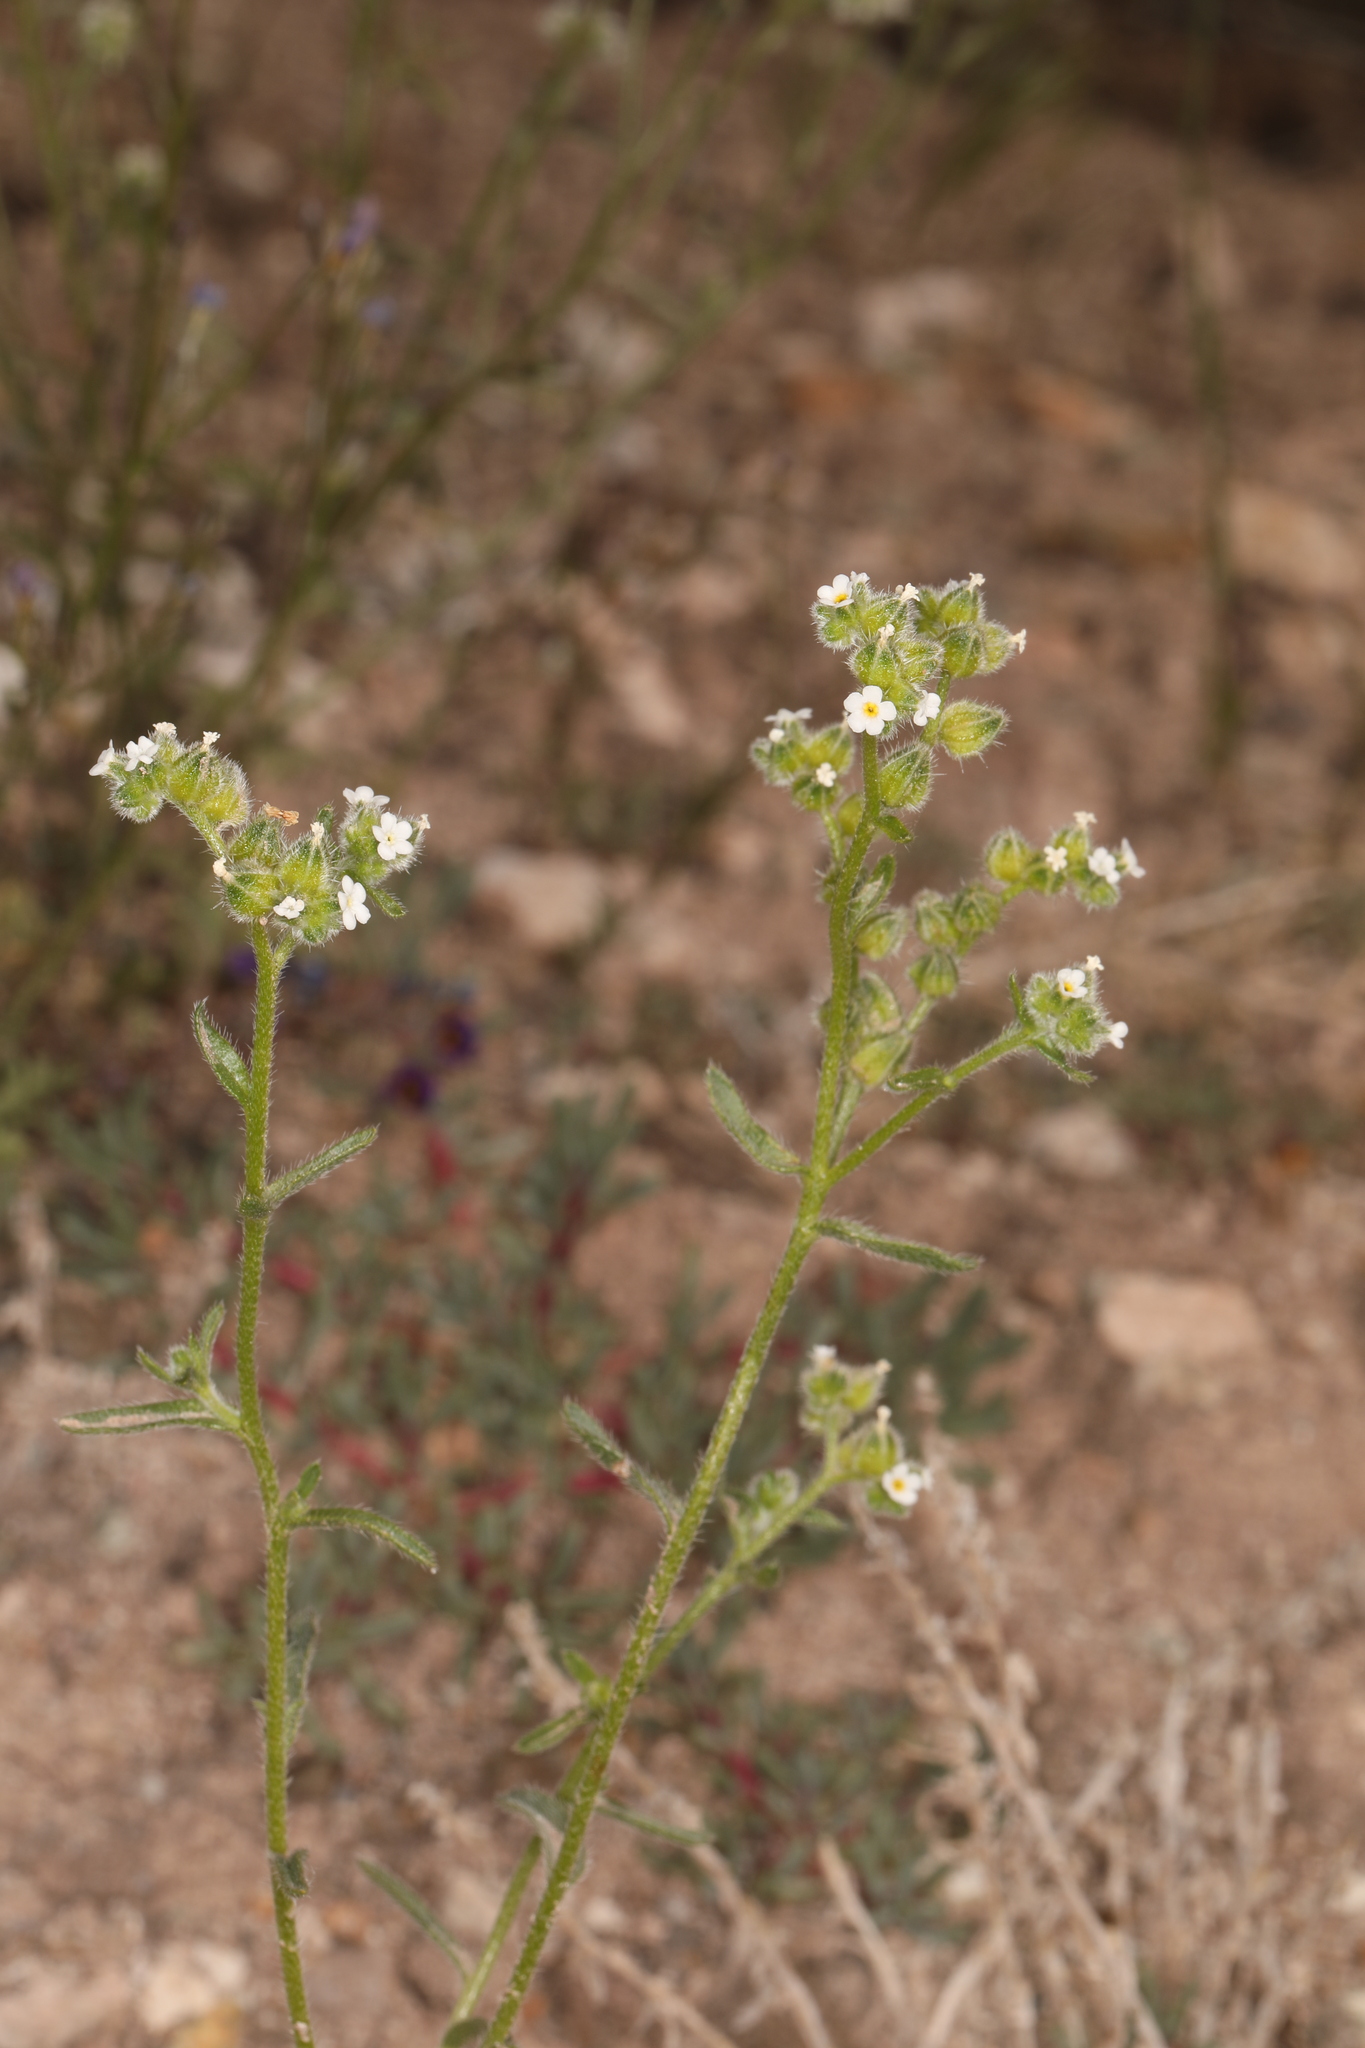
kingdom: Plantae
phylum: Tracheophyta
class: Magnoliopsida
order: Boraginales
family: Boraginaceae
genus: Cryptantha
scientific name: Cryptantha pterocarya
